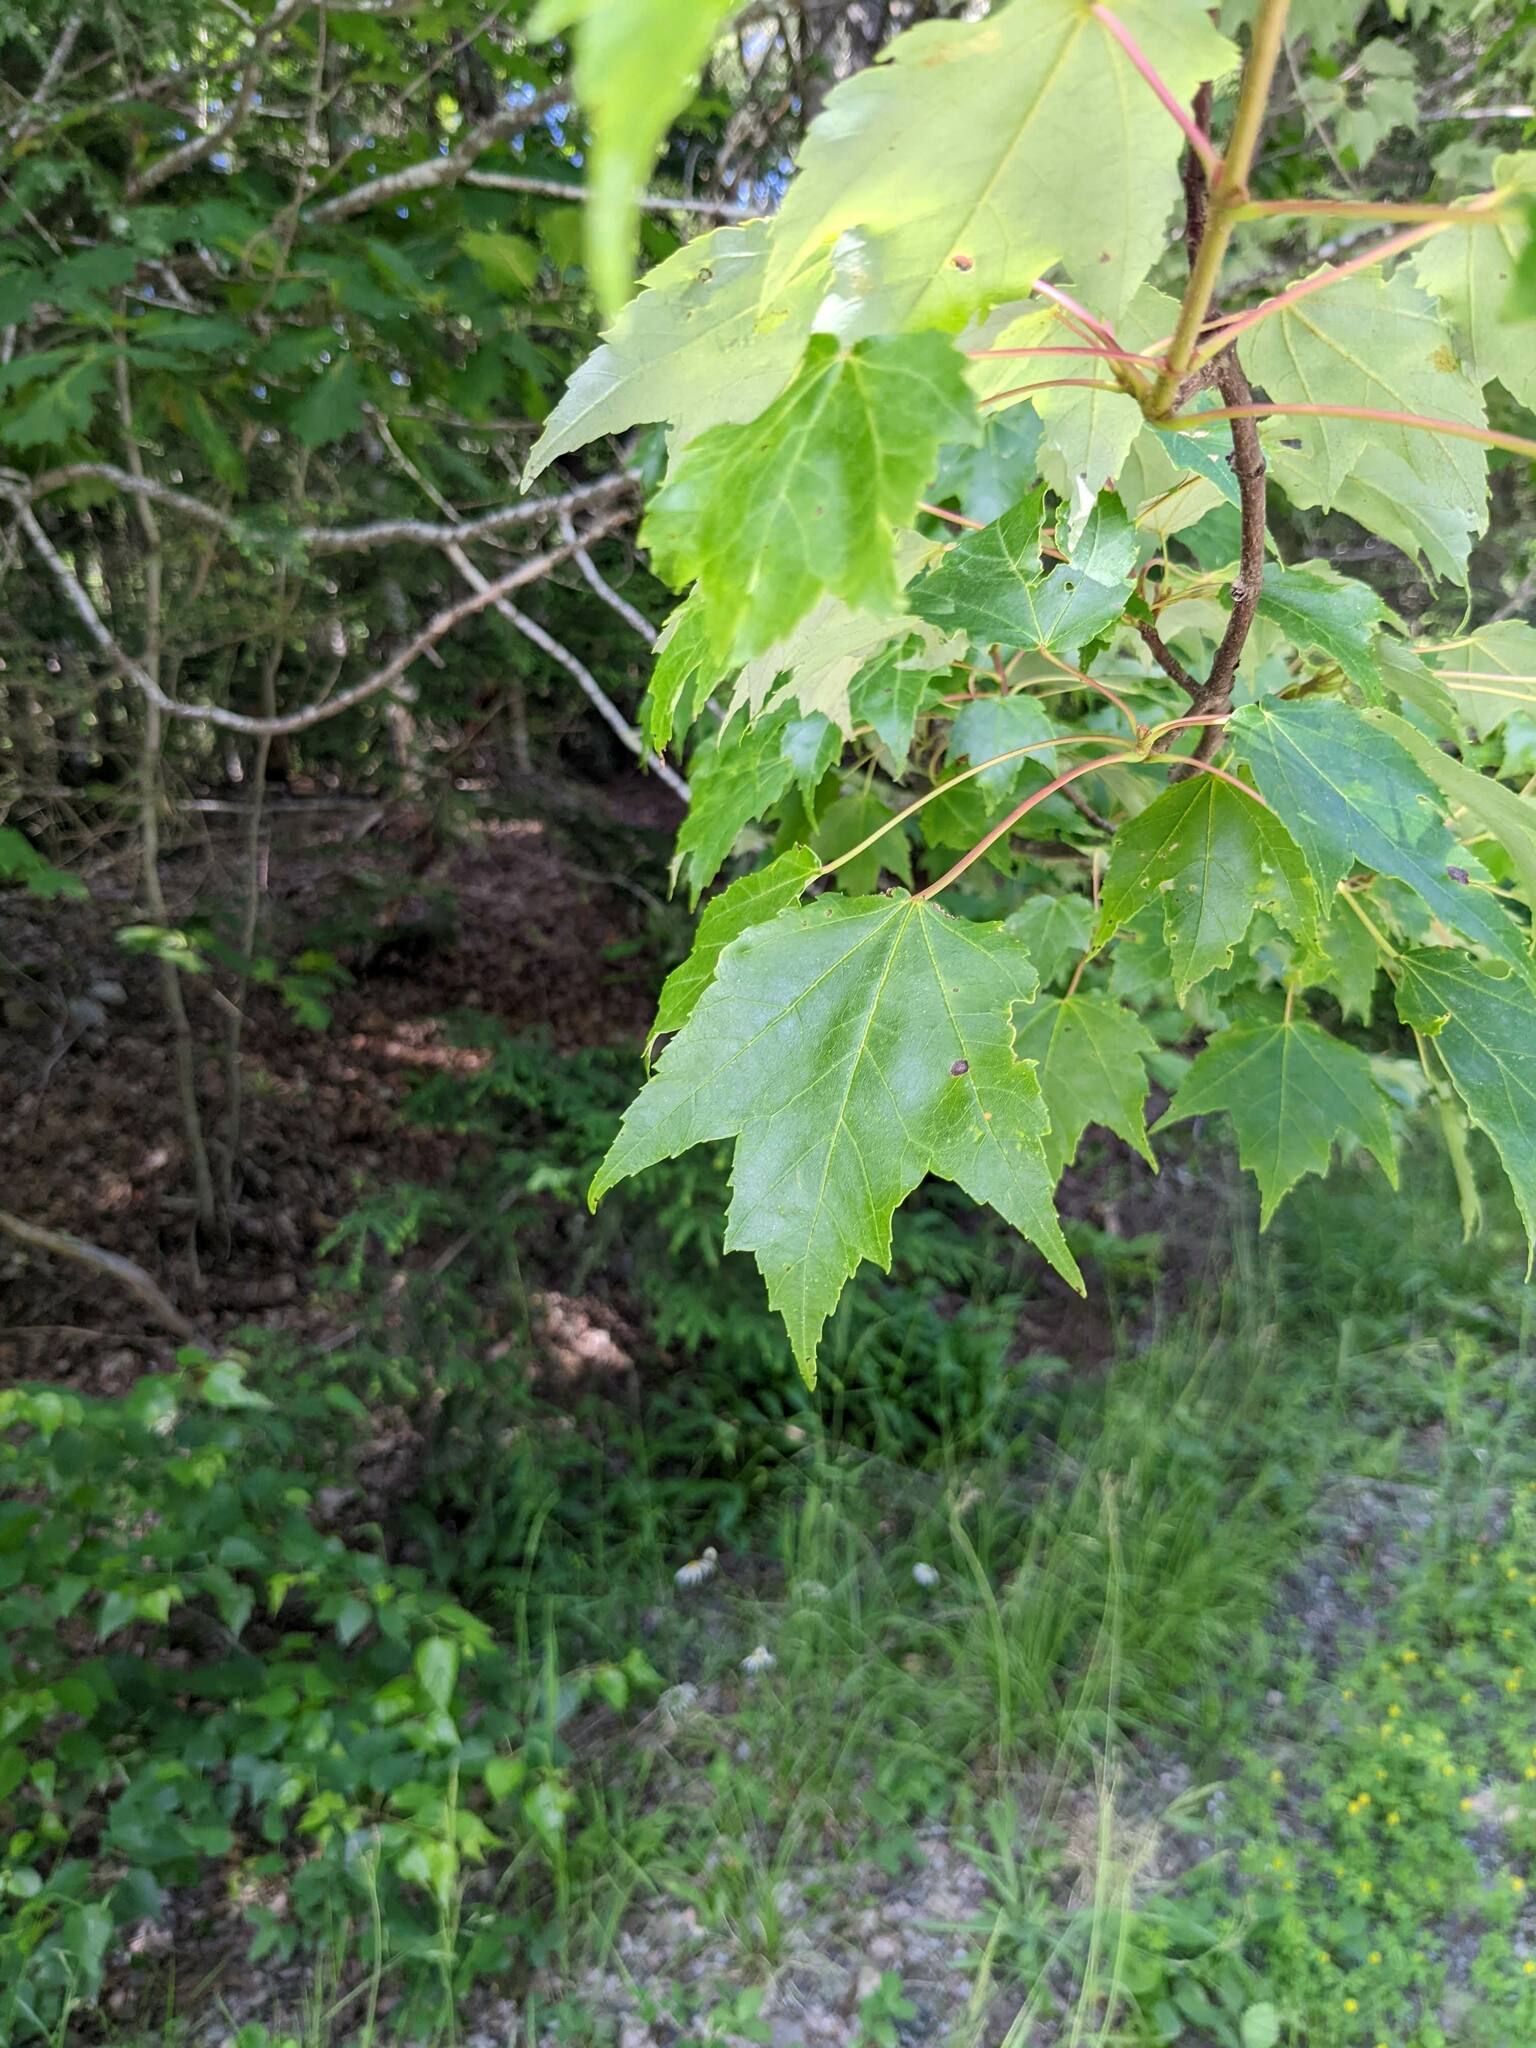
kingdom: Plantae
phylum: Tracheophyta
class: Magnoliopsida
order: Sapindales
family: Sapindaceae
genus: Acer
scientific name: Acer rubrum
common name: Red maple
